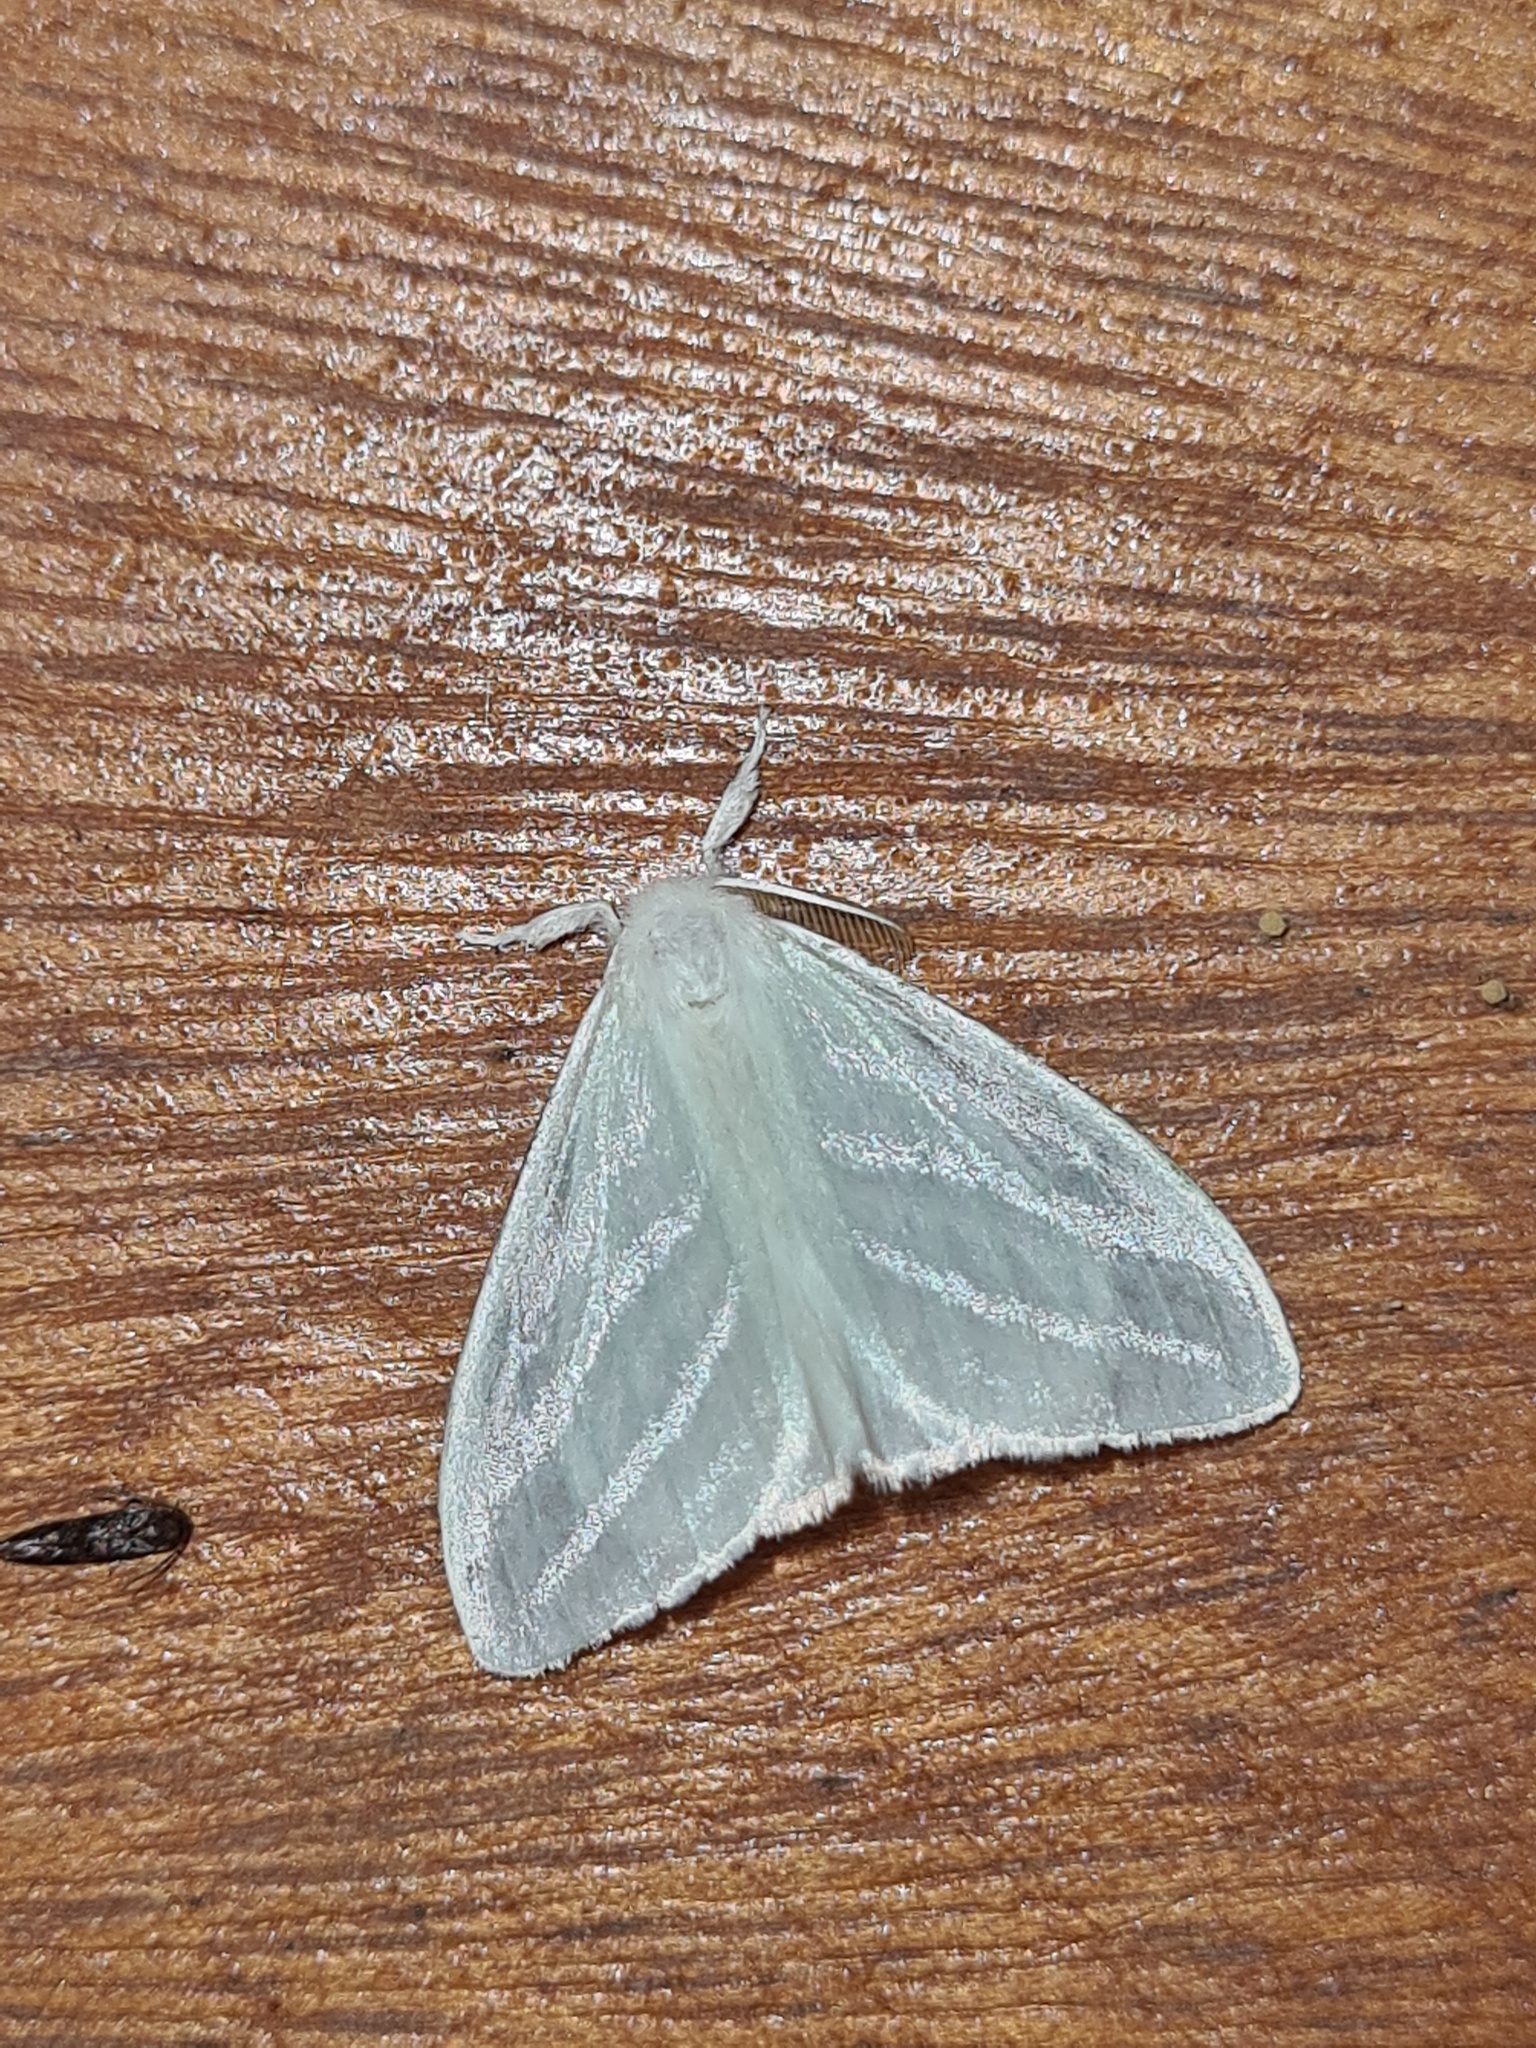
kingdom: Animalia
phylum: Arthropoda
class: Insecta
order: Lepidoptera
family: Erebidae
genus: Caviria
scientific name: Caviria regina
